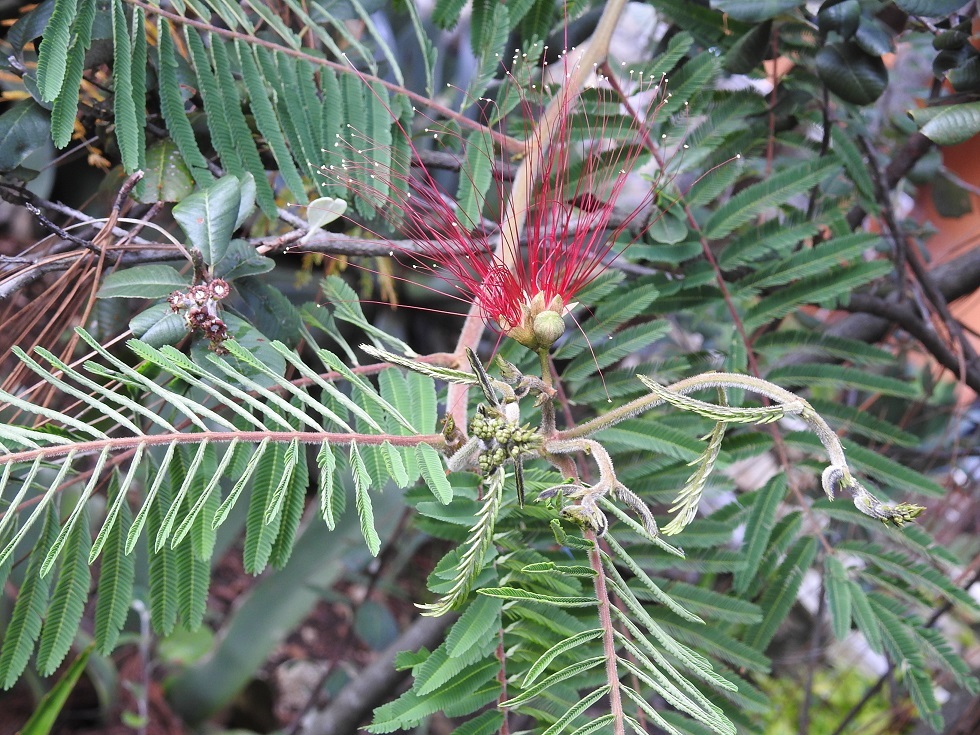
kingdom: Plantae
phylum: Tracheophyta
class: Magnoliopsida
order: Fabales
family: Fabaceae
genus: Calliandra
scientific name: Calliandra houstoniana
